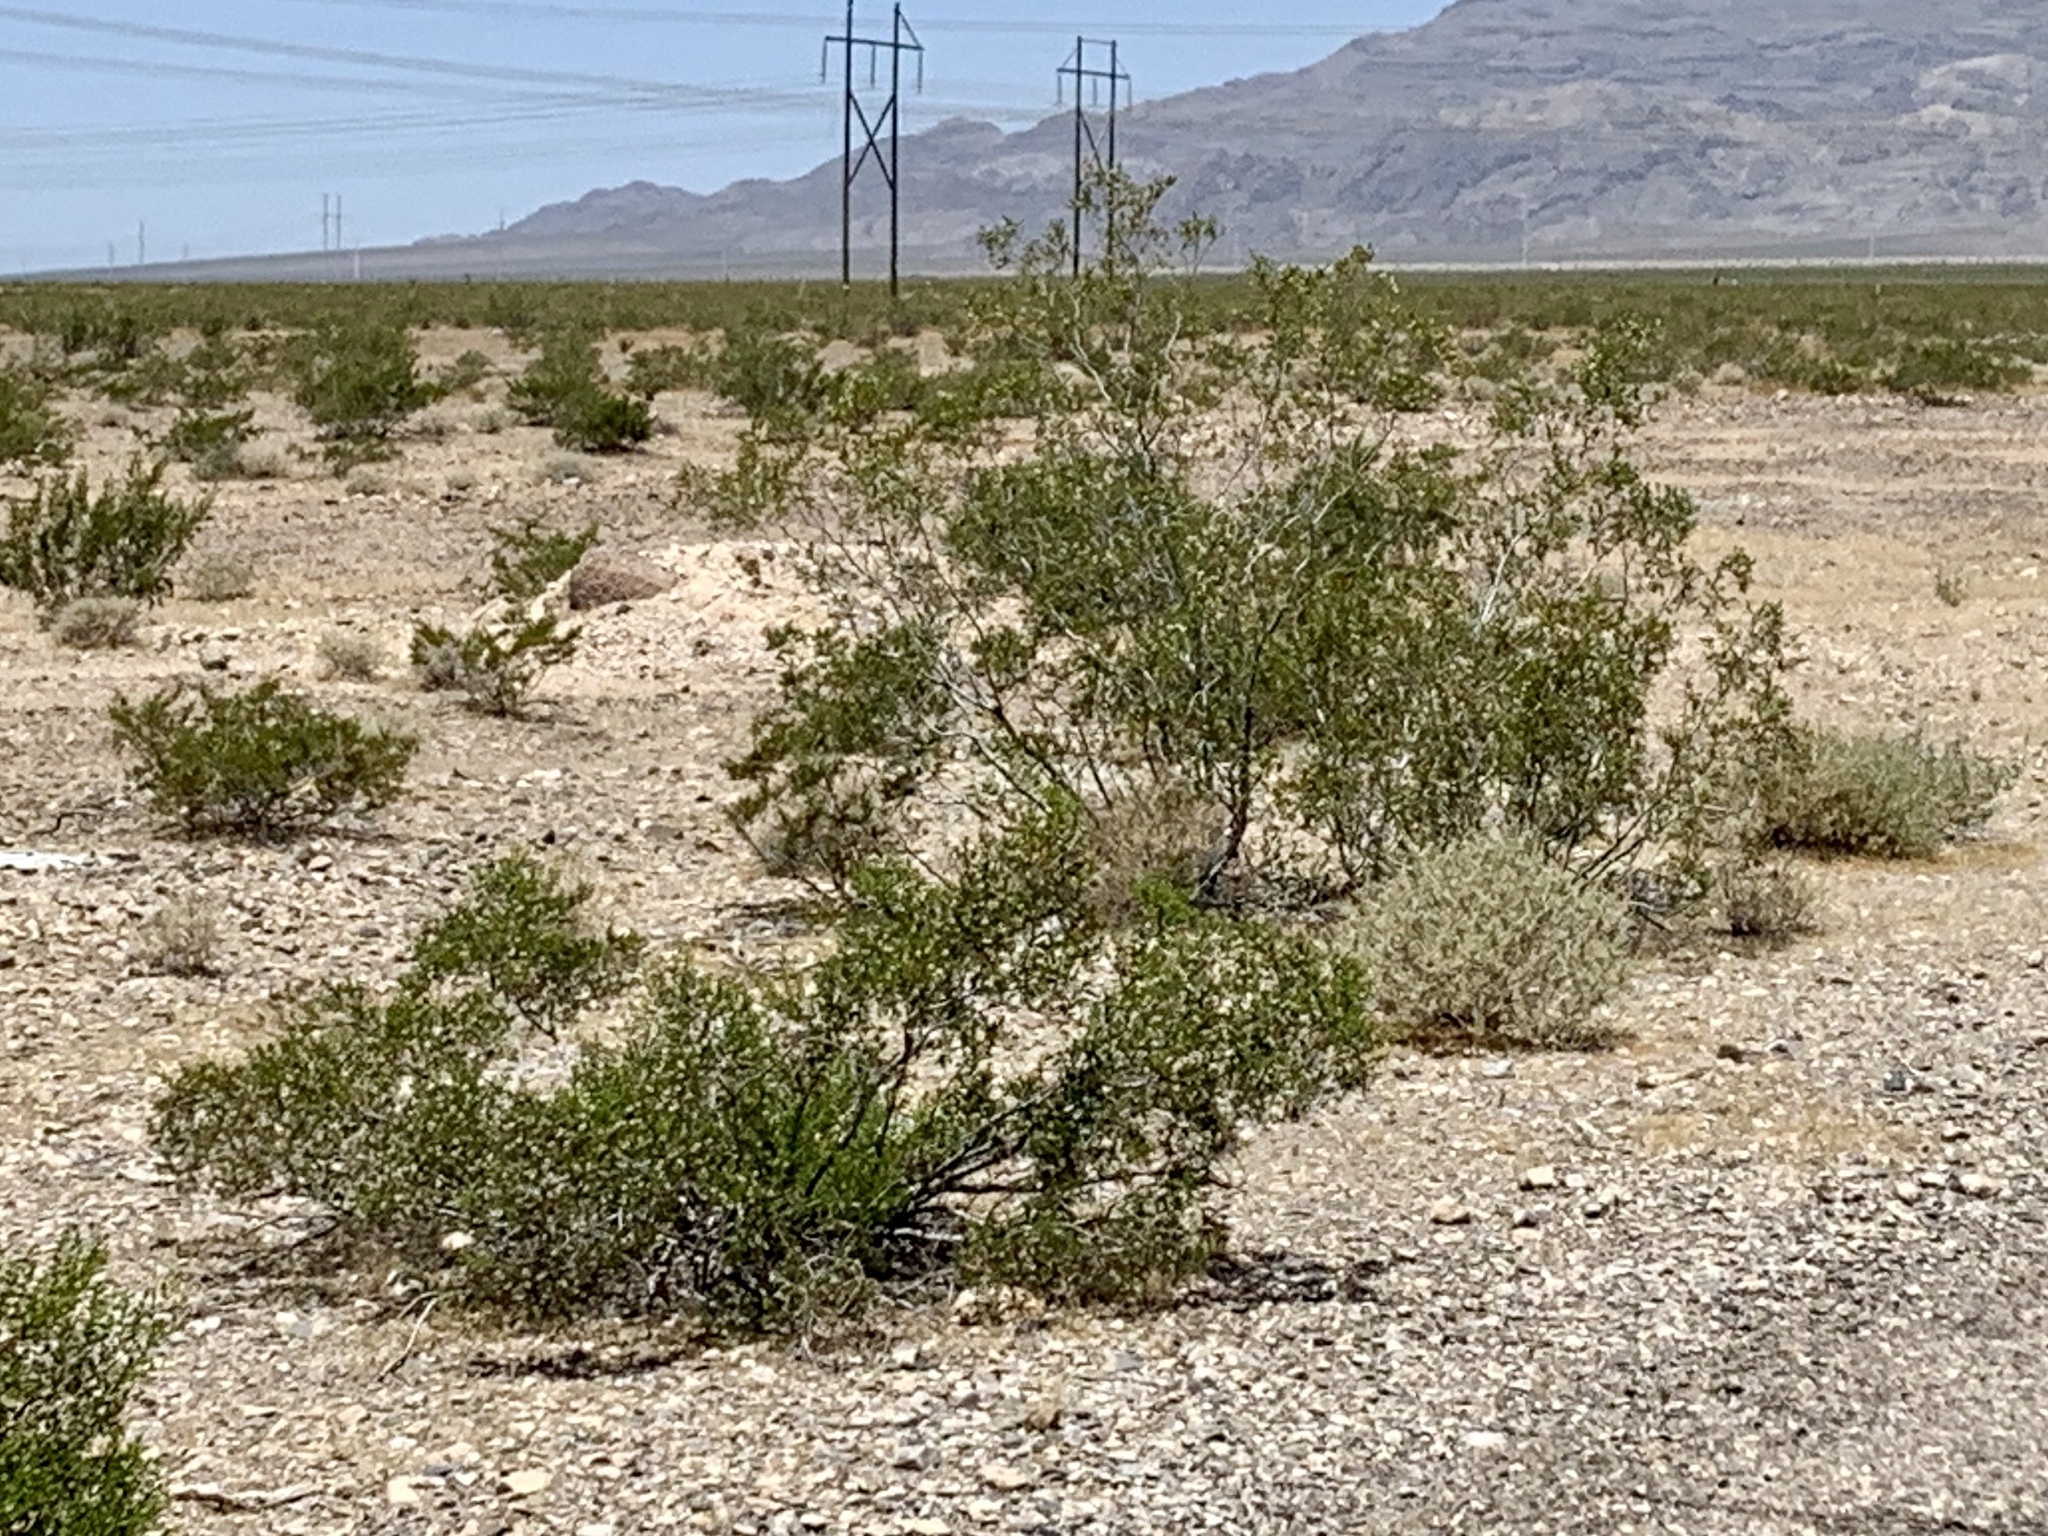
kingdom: Plantae
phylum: Tracheophyta
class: Magnoliopsida
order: Zygophyllales
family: Zygophyllaceae
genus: Larrea
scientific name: Larrea tridentata
